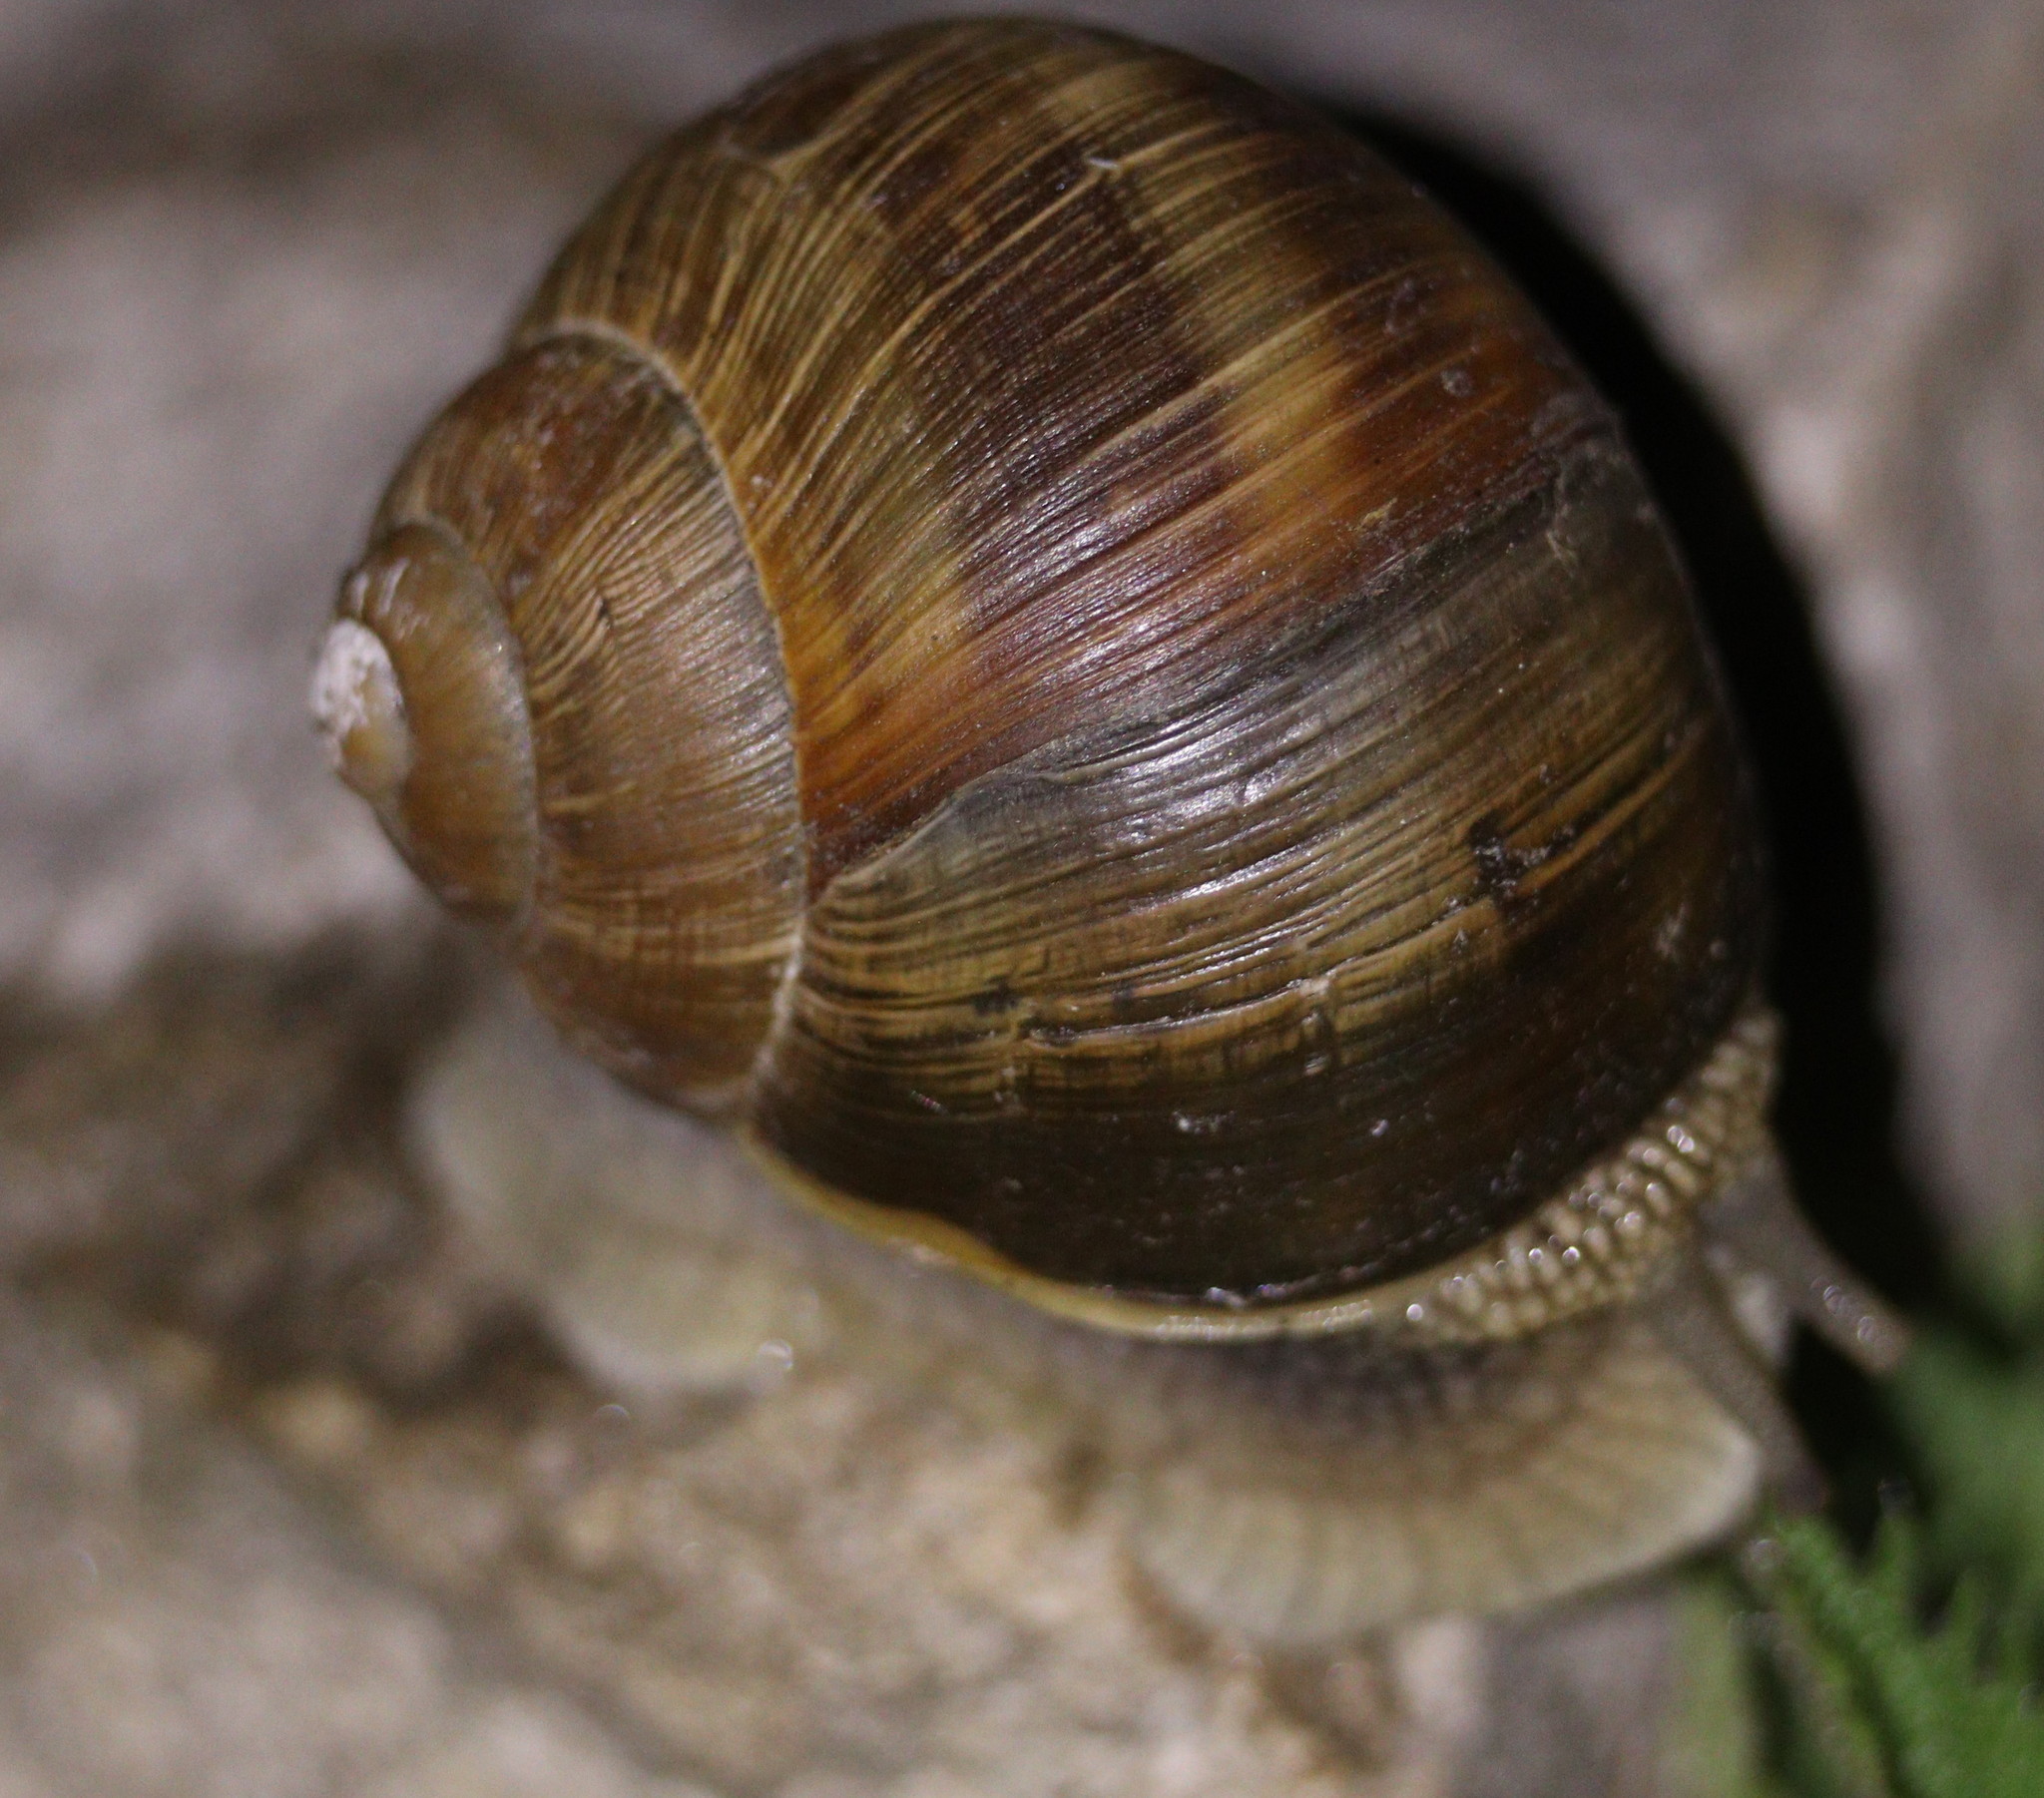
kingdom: Animalia
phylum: Mollusca
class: Gastropoda
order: Stylommatophora
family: Helicidae
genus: Helix
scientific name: Helix pomatia
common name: Roman snail
